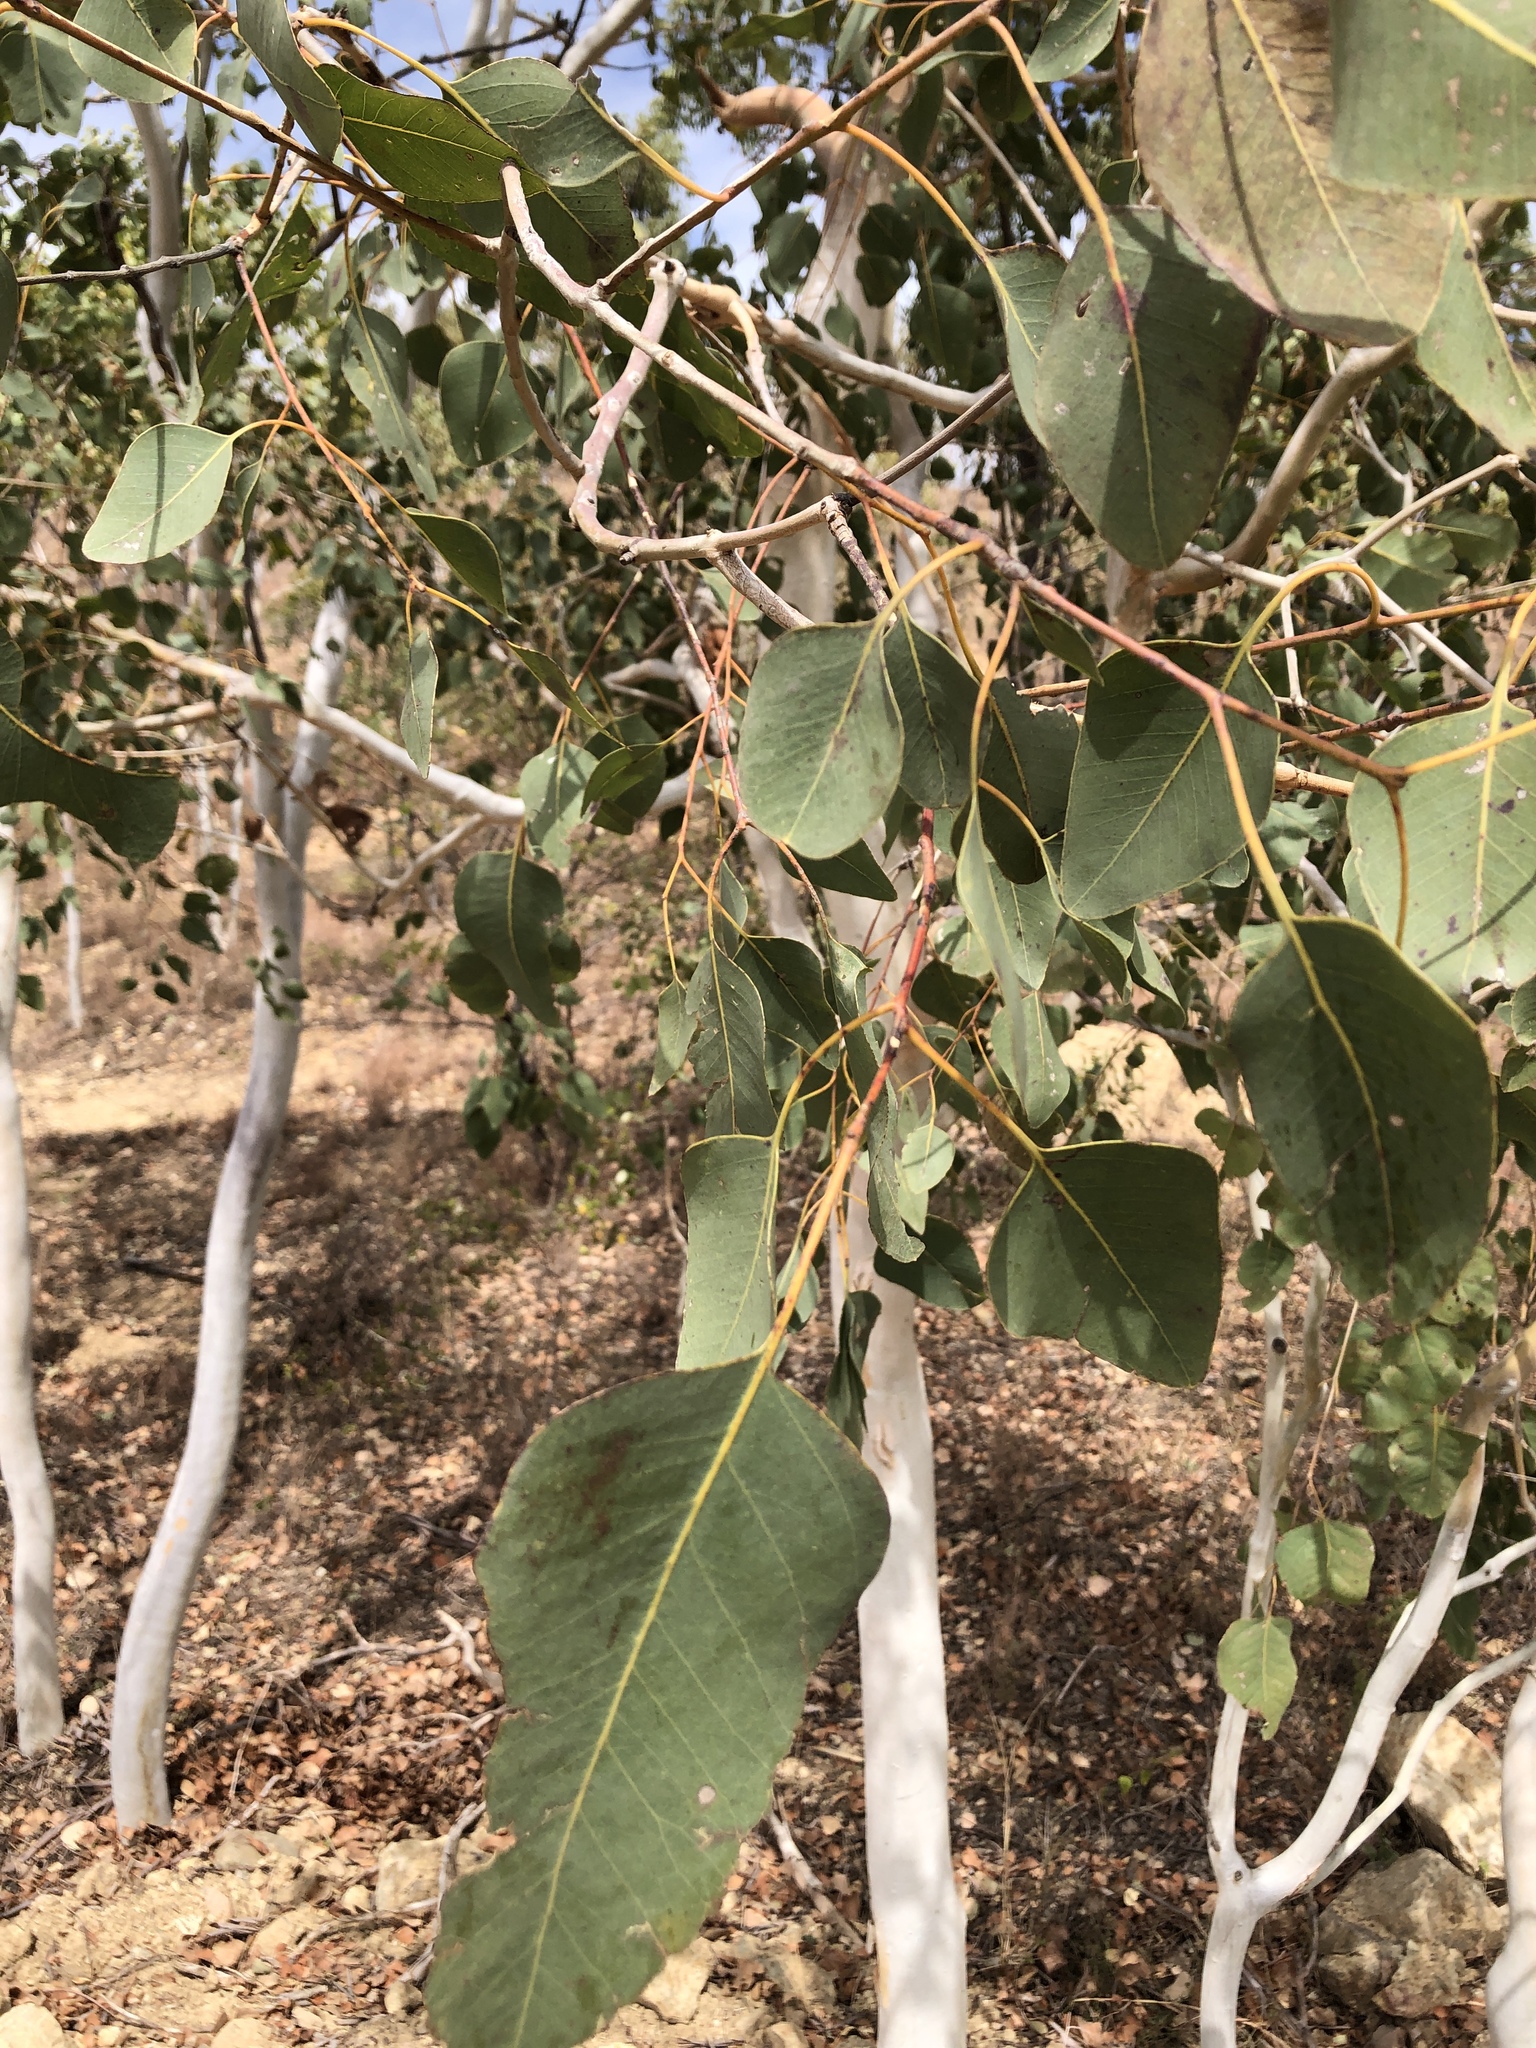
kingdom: Plantae
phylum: Tracheophyta
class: Magnoliopsida
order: Myrtales
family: Myrtaceae
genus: Eucalyptus
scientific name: Eucalyptus platyphylla
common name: Poplar-gum
